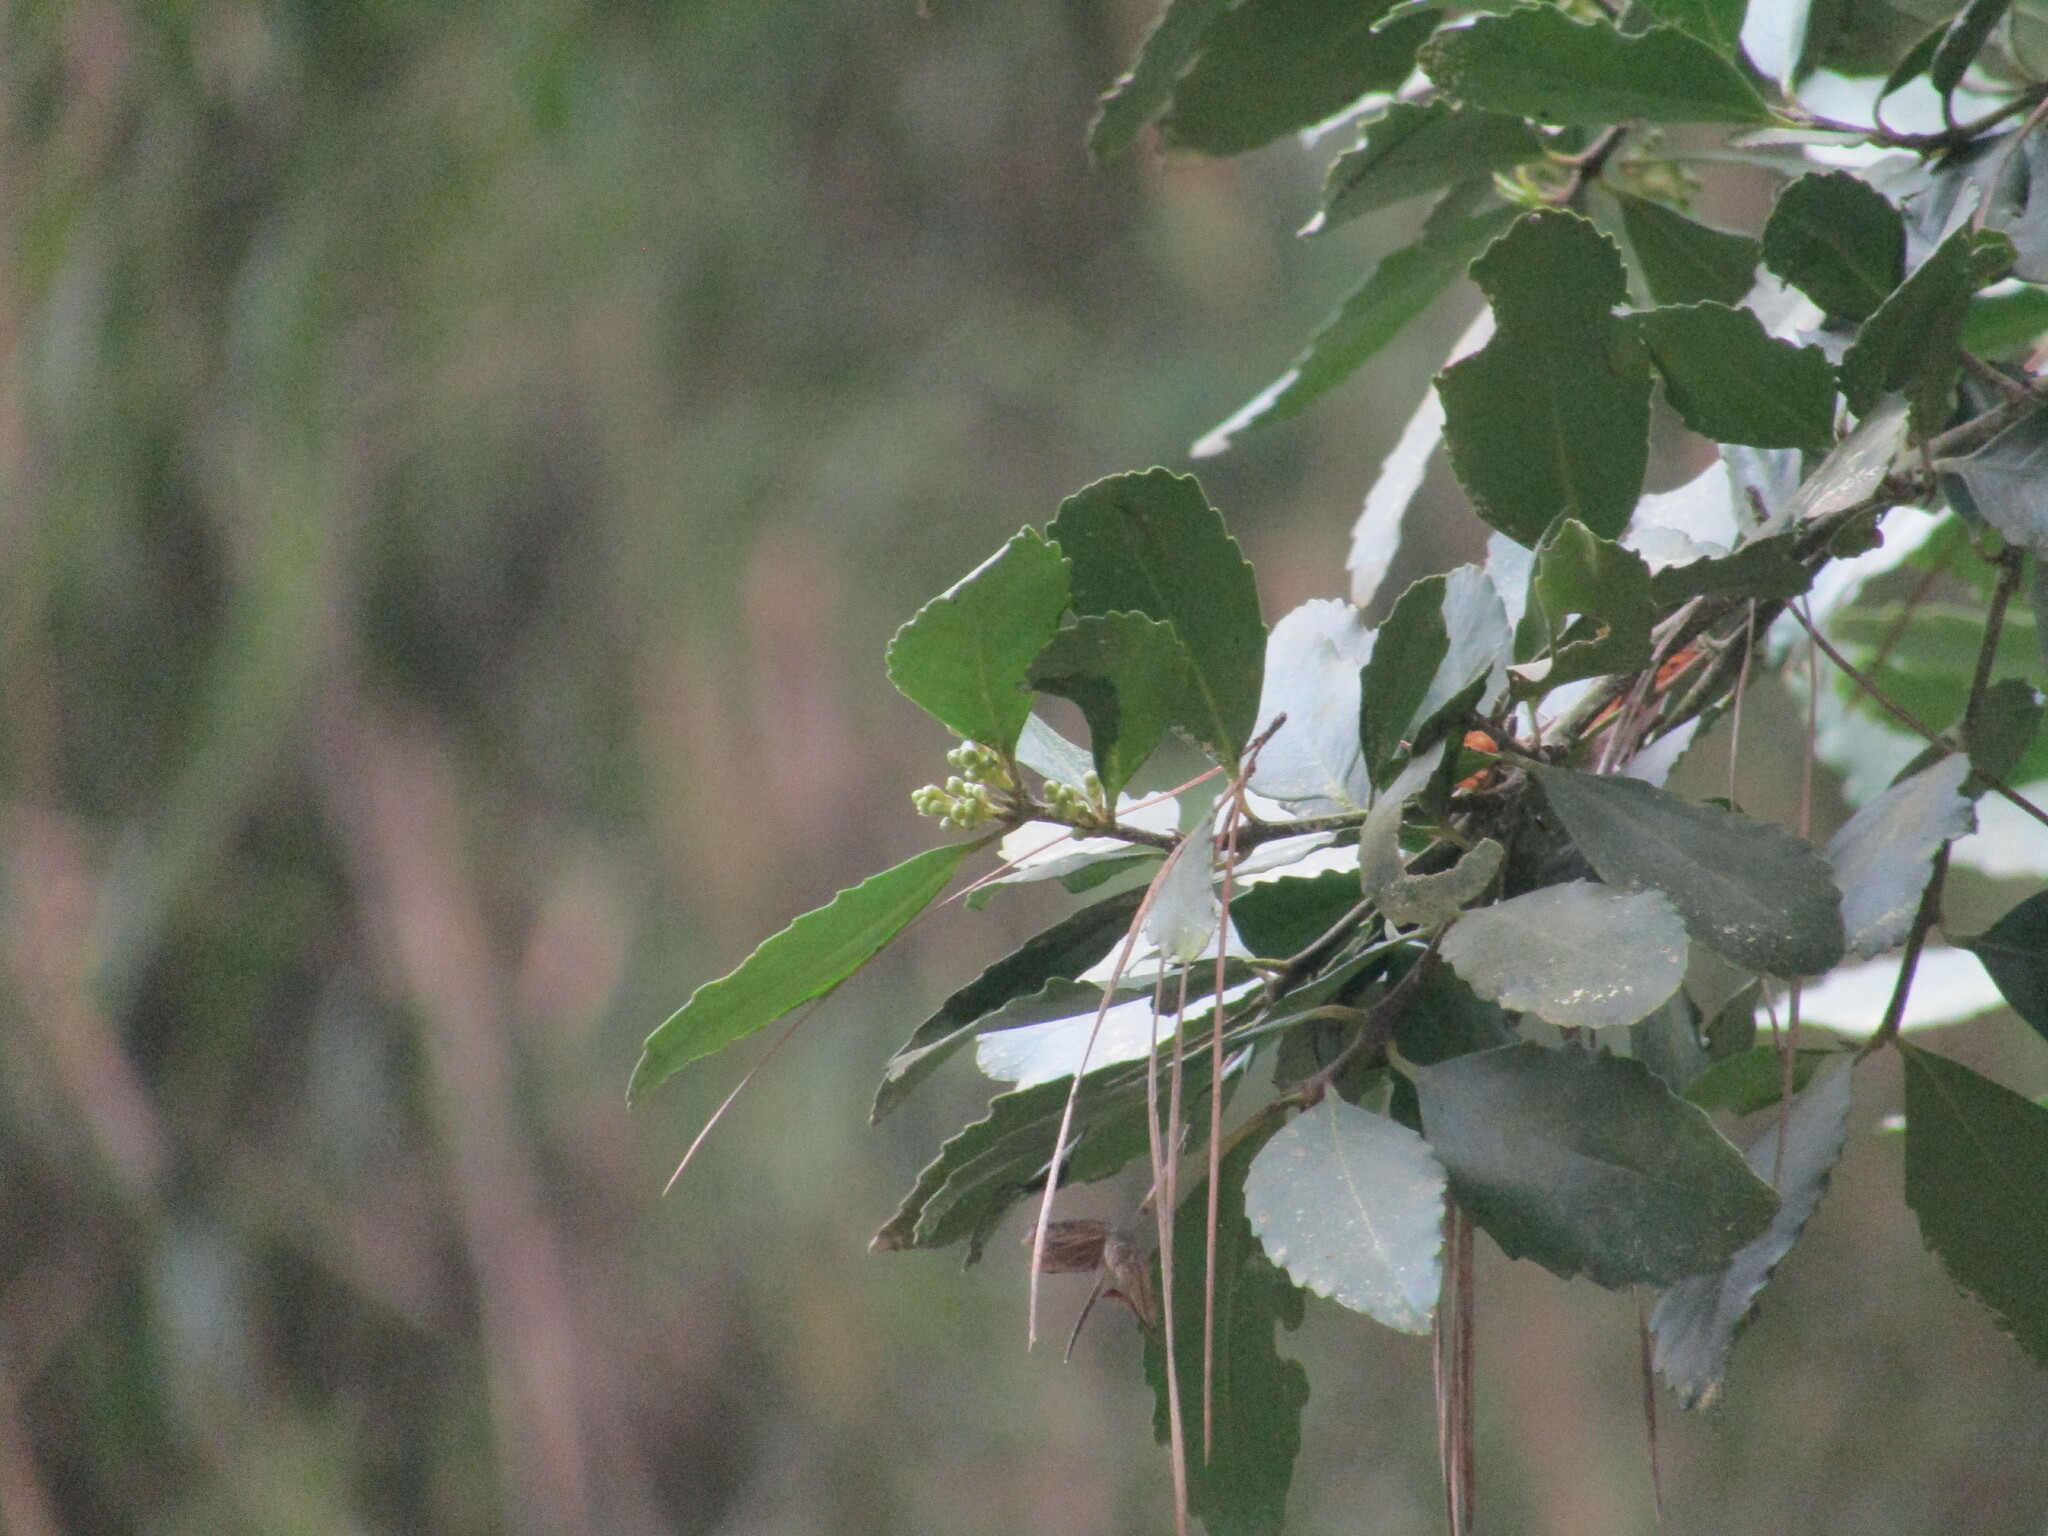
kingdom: Plantae
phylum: Tracheophyta
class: Magnoliopsida
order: Laurales
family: Atherospermataceae
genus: Laurelia
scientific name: Laurelia sempervirens
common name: Chilean laurel
